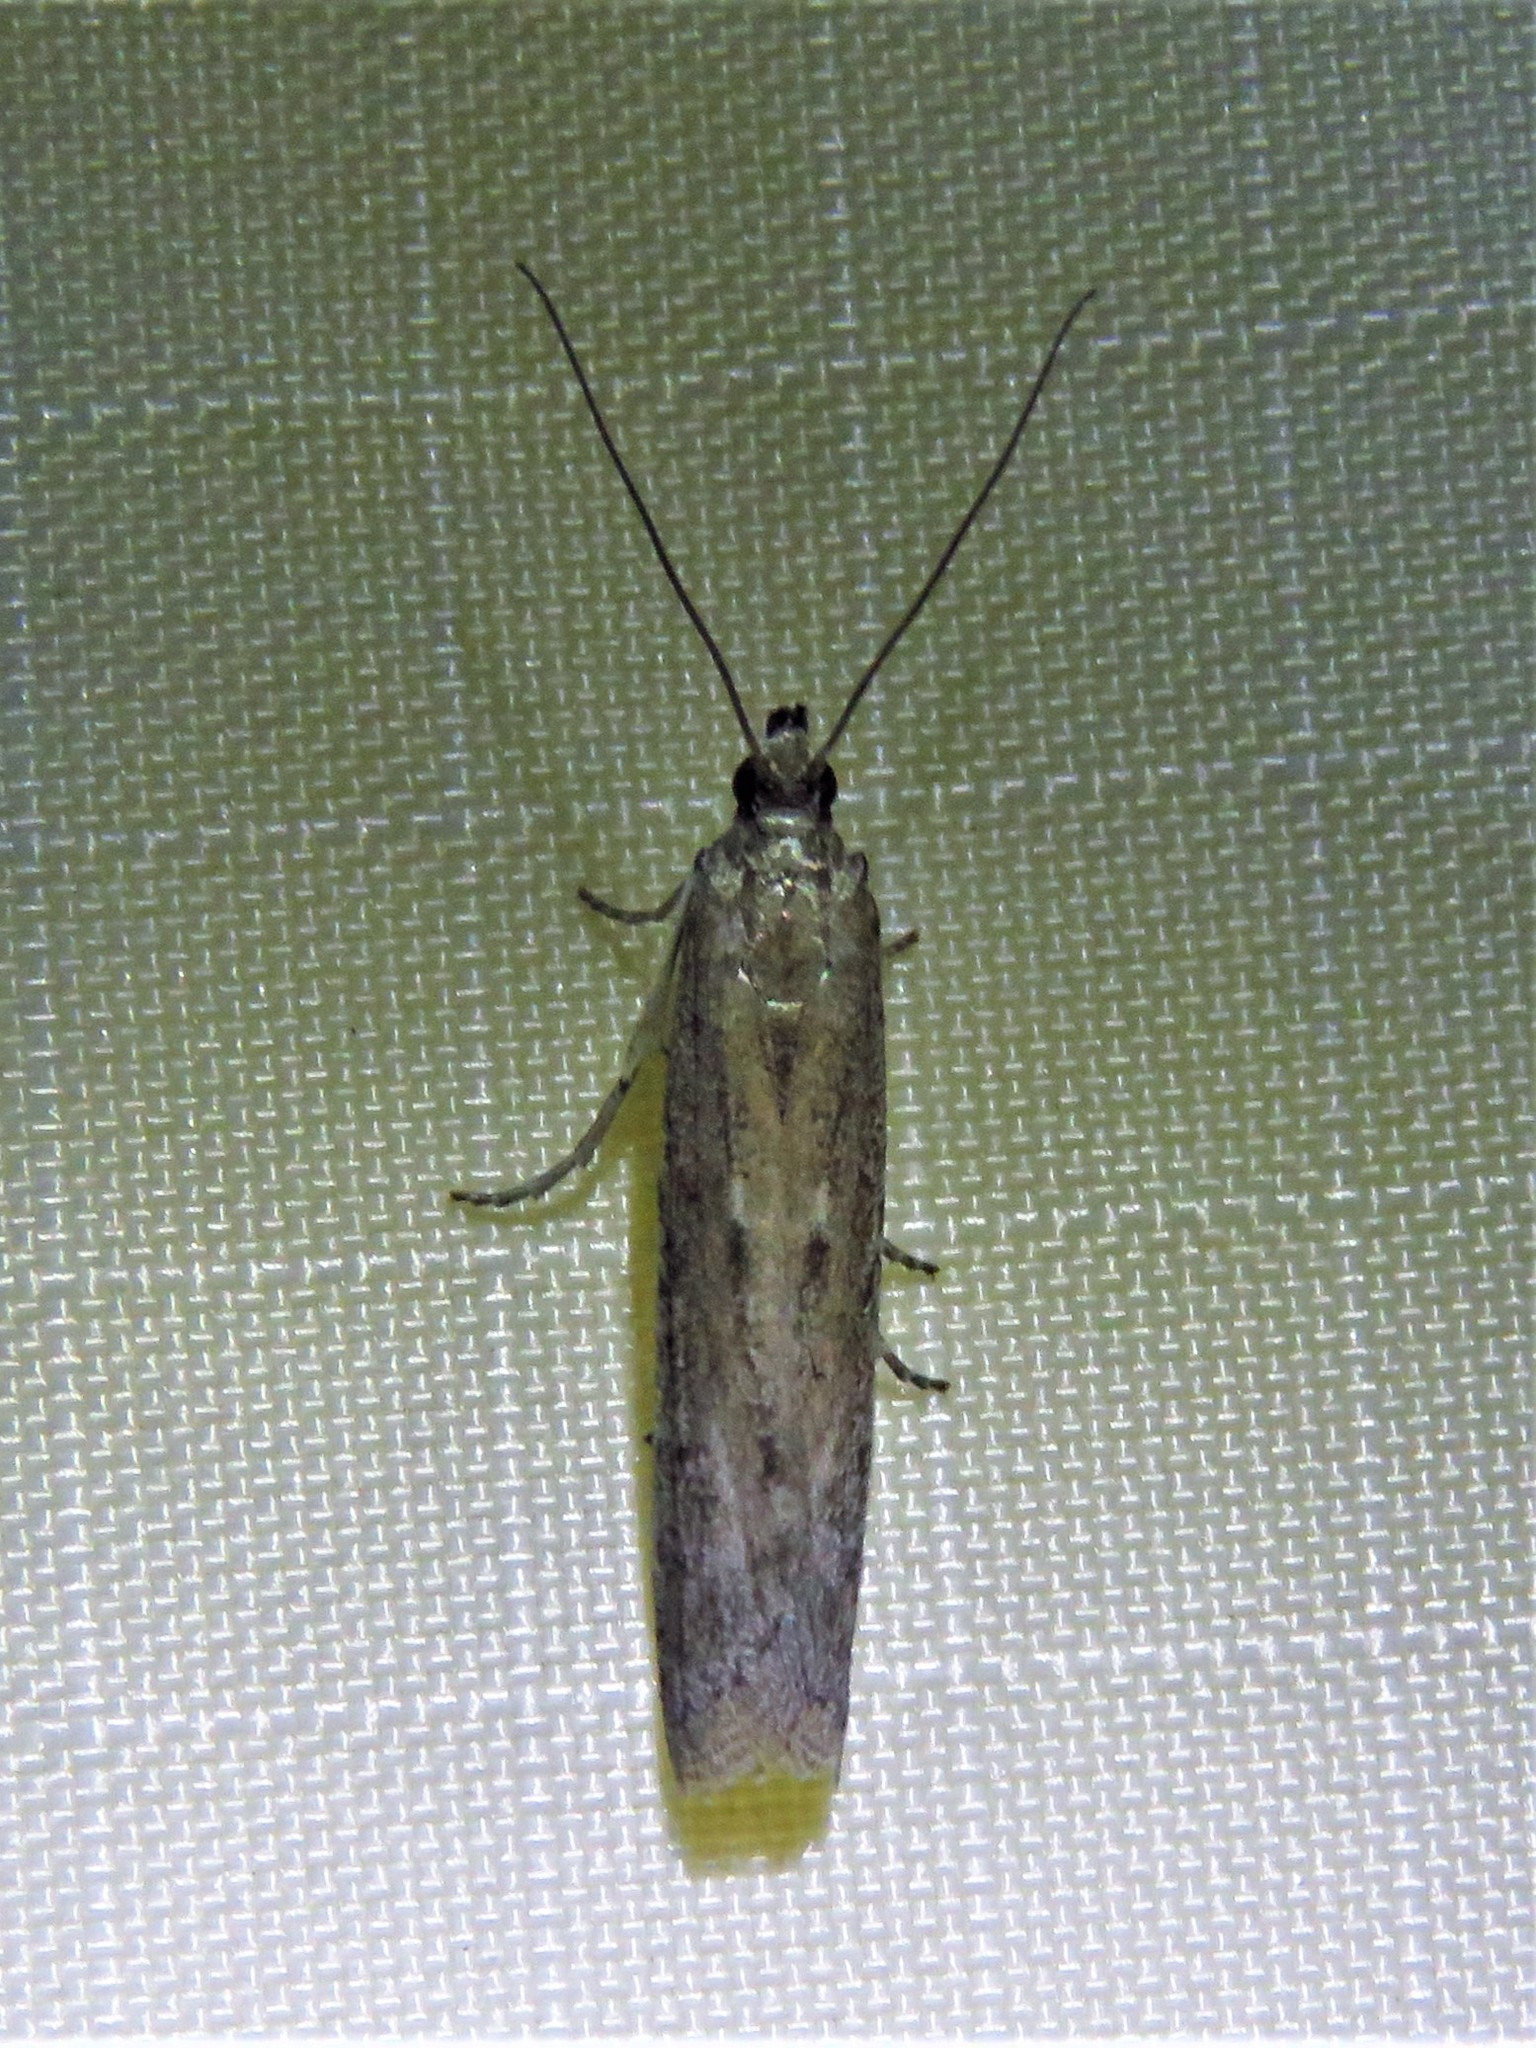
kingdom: Animalia
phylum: Arthropoda
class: Insecta
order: Lepidoptera
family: Pyralidae
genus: Homoeosoma
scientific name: Homoeosoma electella
